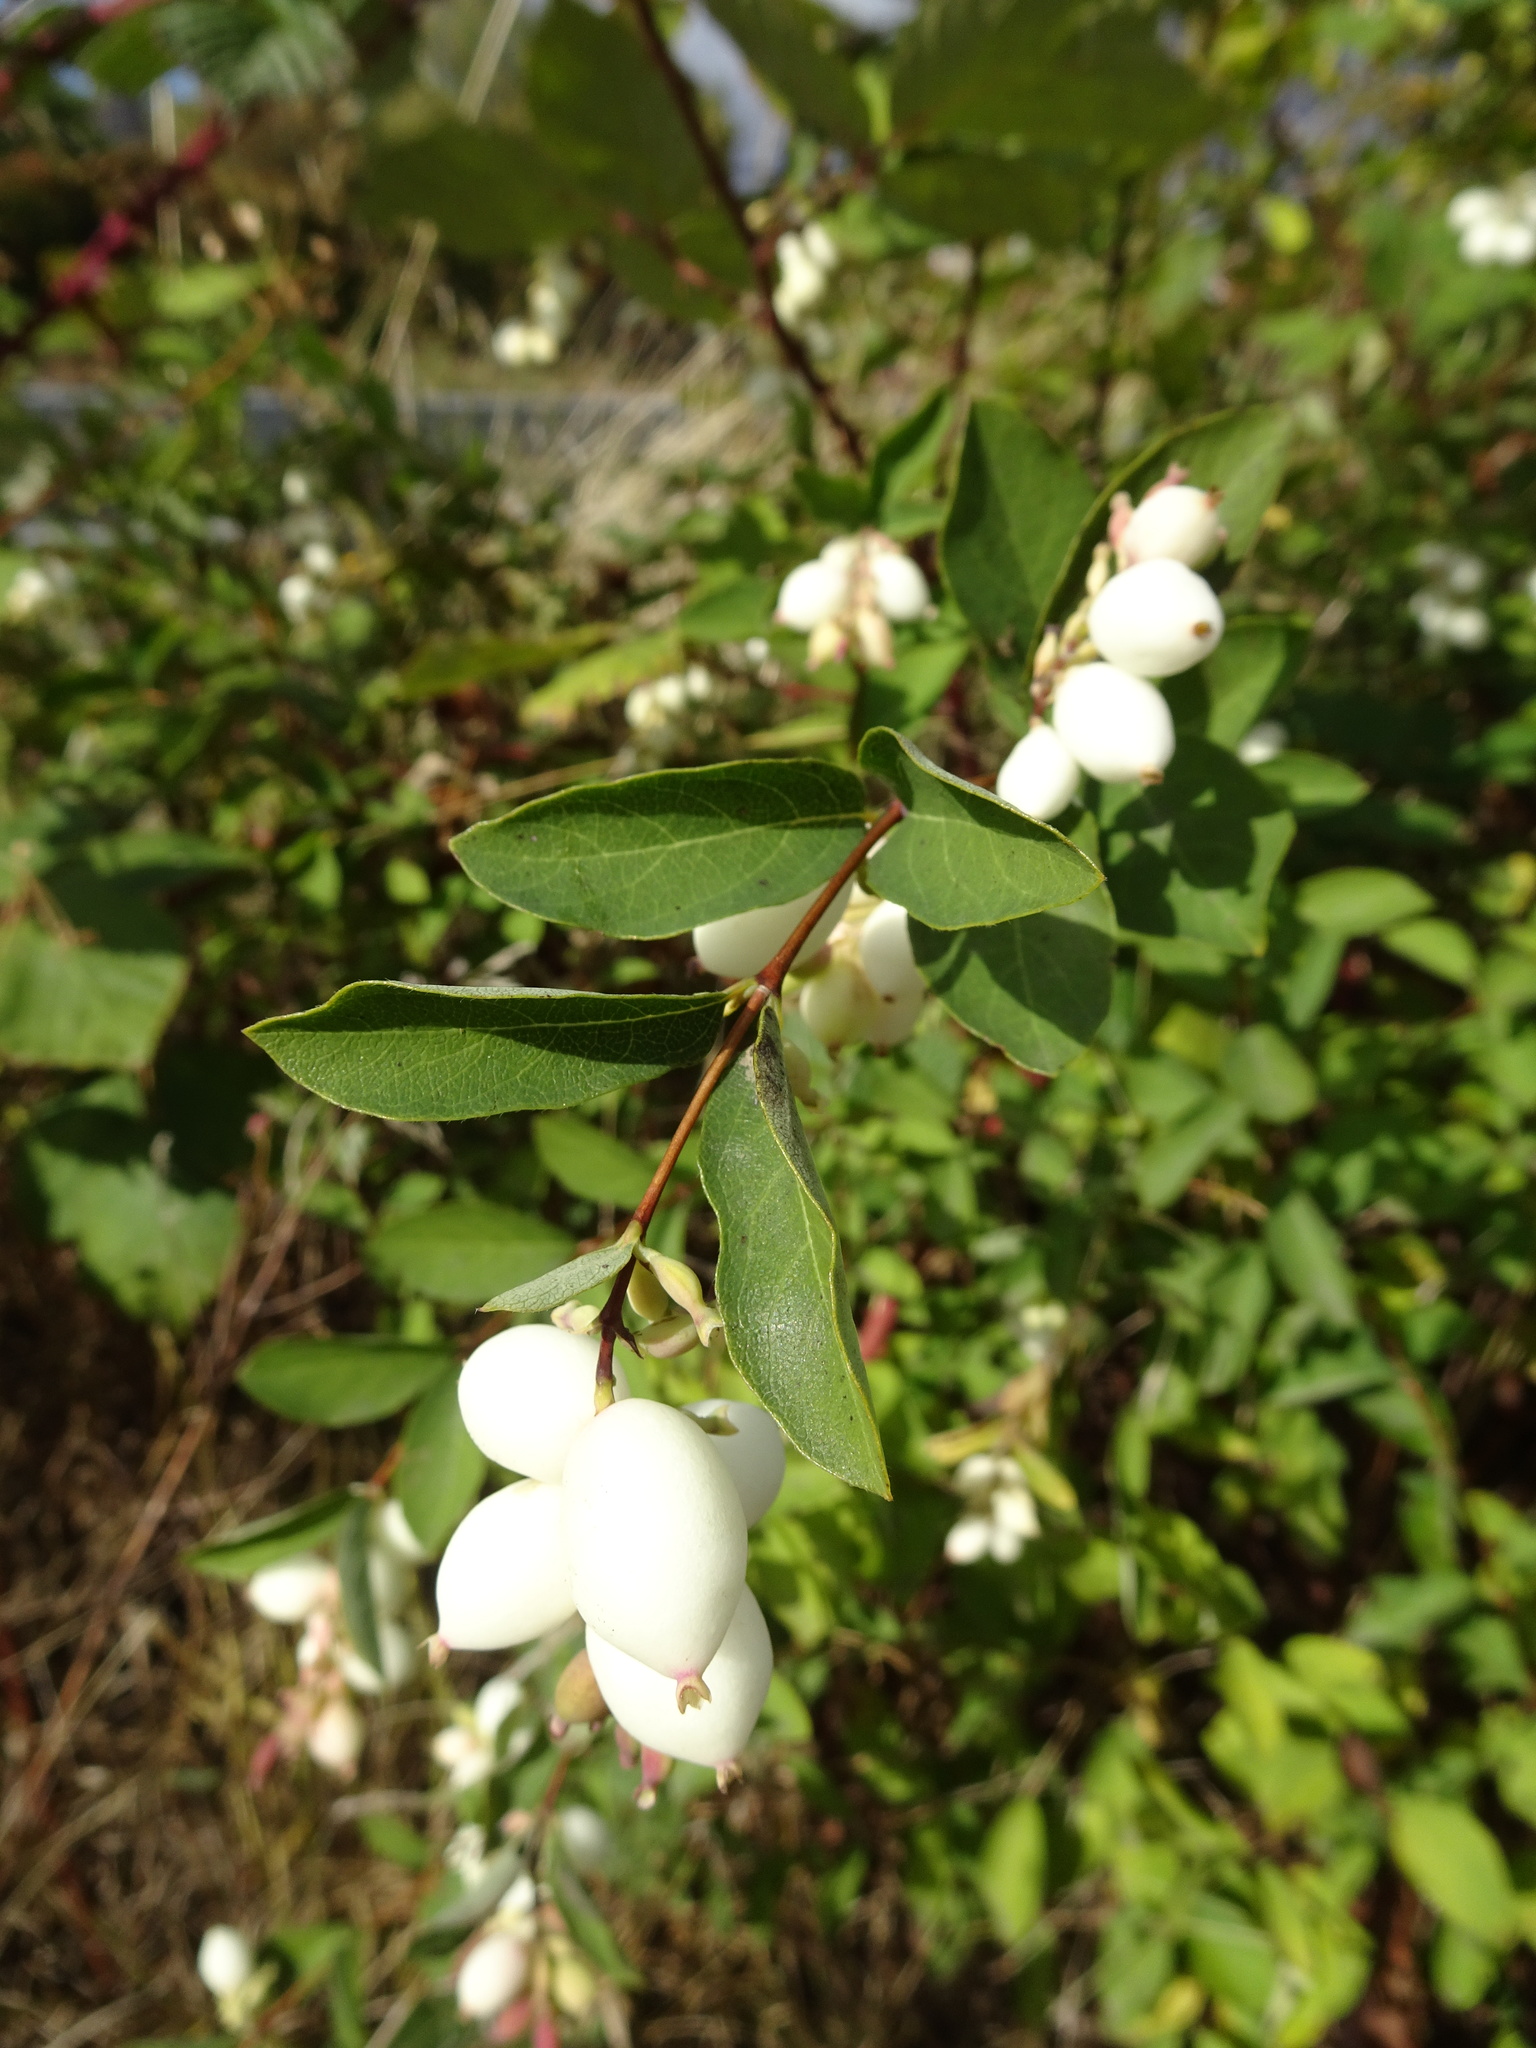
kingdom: Plantae
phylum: Tracheophyta
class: Magnoliopsida
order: Dipsacales
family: Caprifoliaceae
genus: Symphoricarpos
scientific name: Symphoricarpos albus
